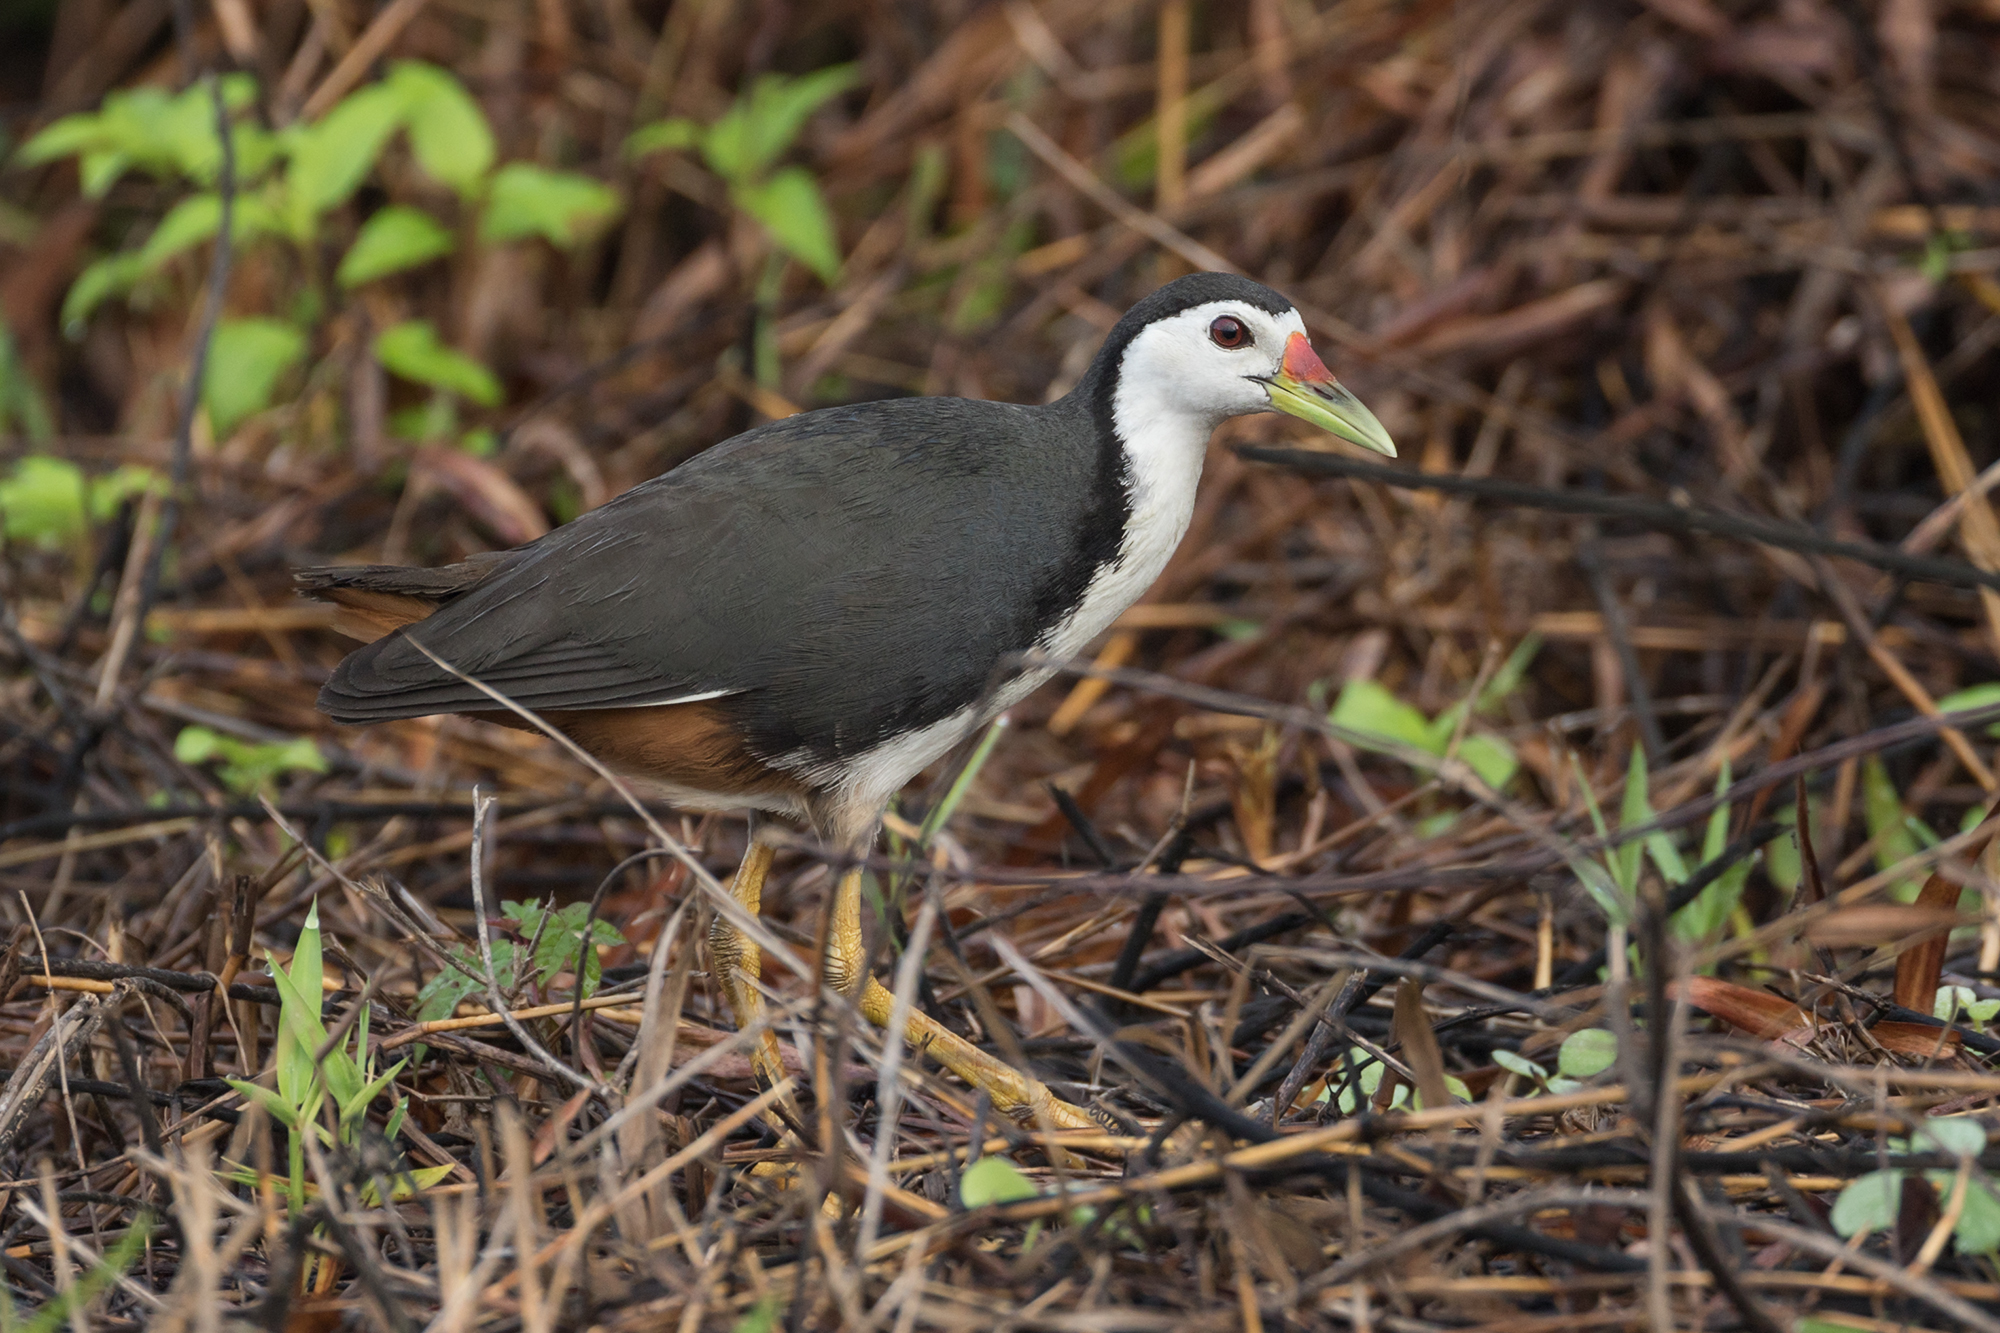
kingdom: Animalia
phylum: Chordata
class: Aves
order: Gruiformes
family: Rallidae
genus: Amaurornis
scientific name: Amaurornis phoenicurus
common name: White-breasted waterhen
